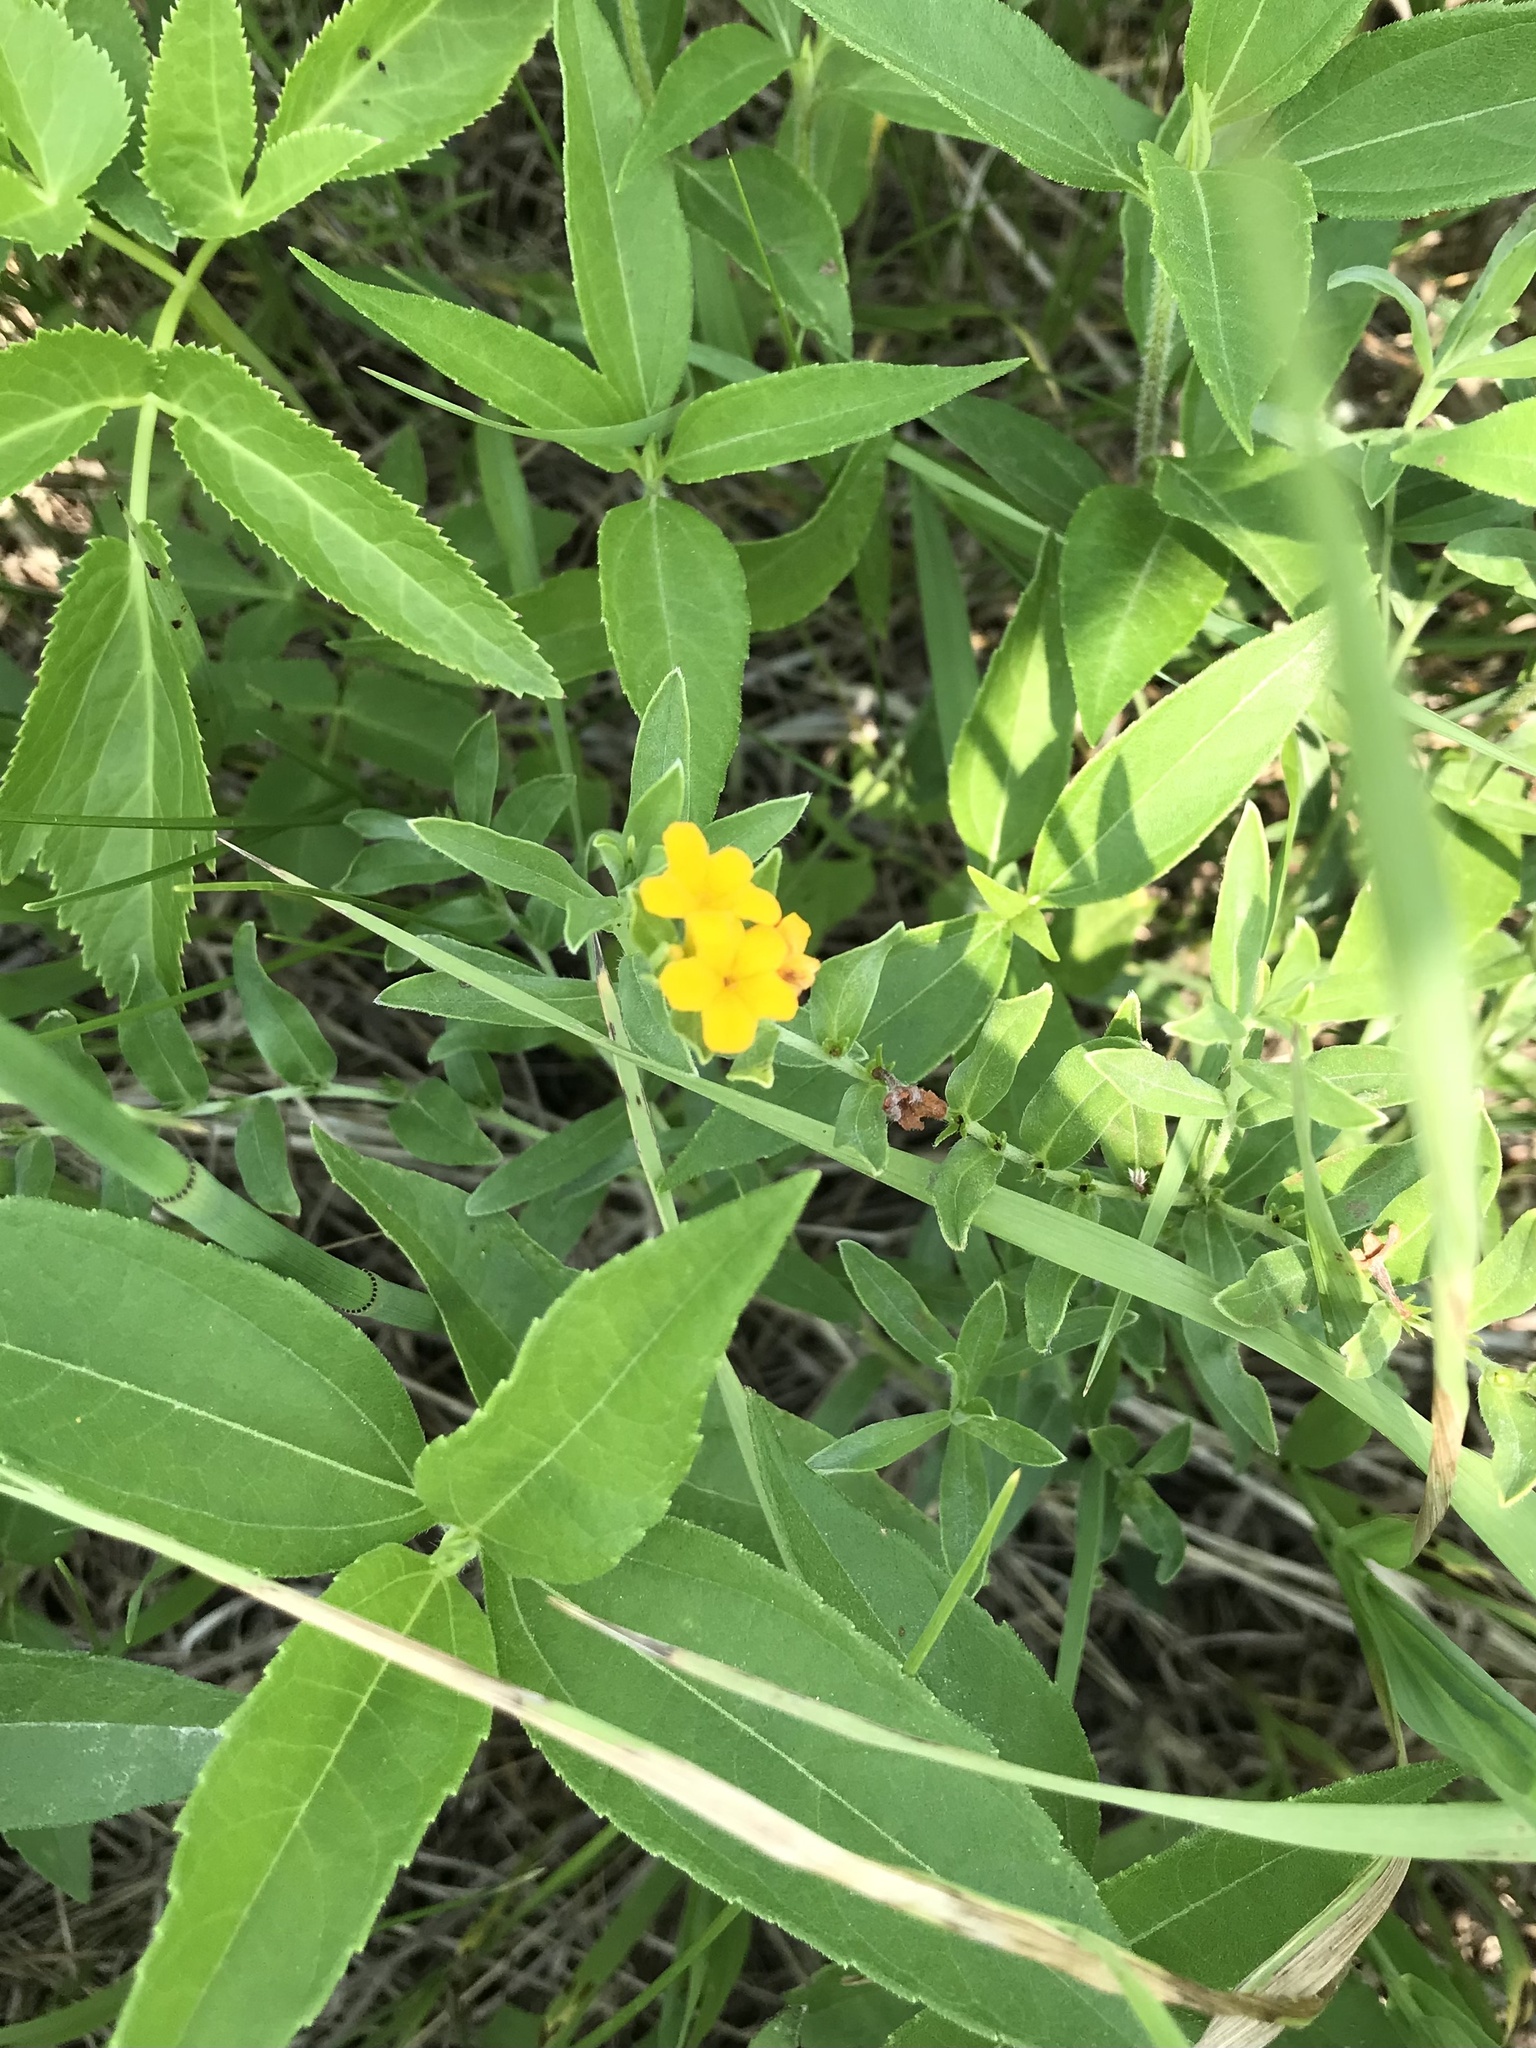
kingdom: Plantae
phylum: Tracheophyta
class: Magnoliopsida
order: Boraginales
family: Boraginaceae
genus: Lithospermum
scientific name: Lithospermum canescens
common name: Hoary puccoon
